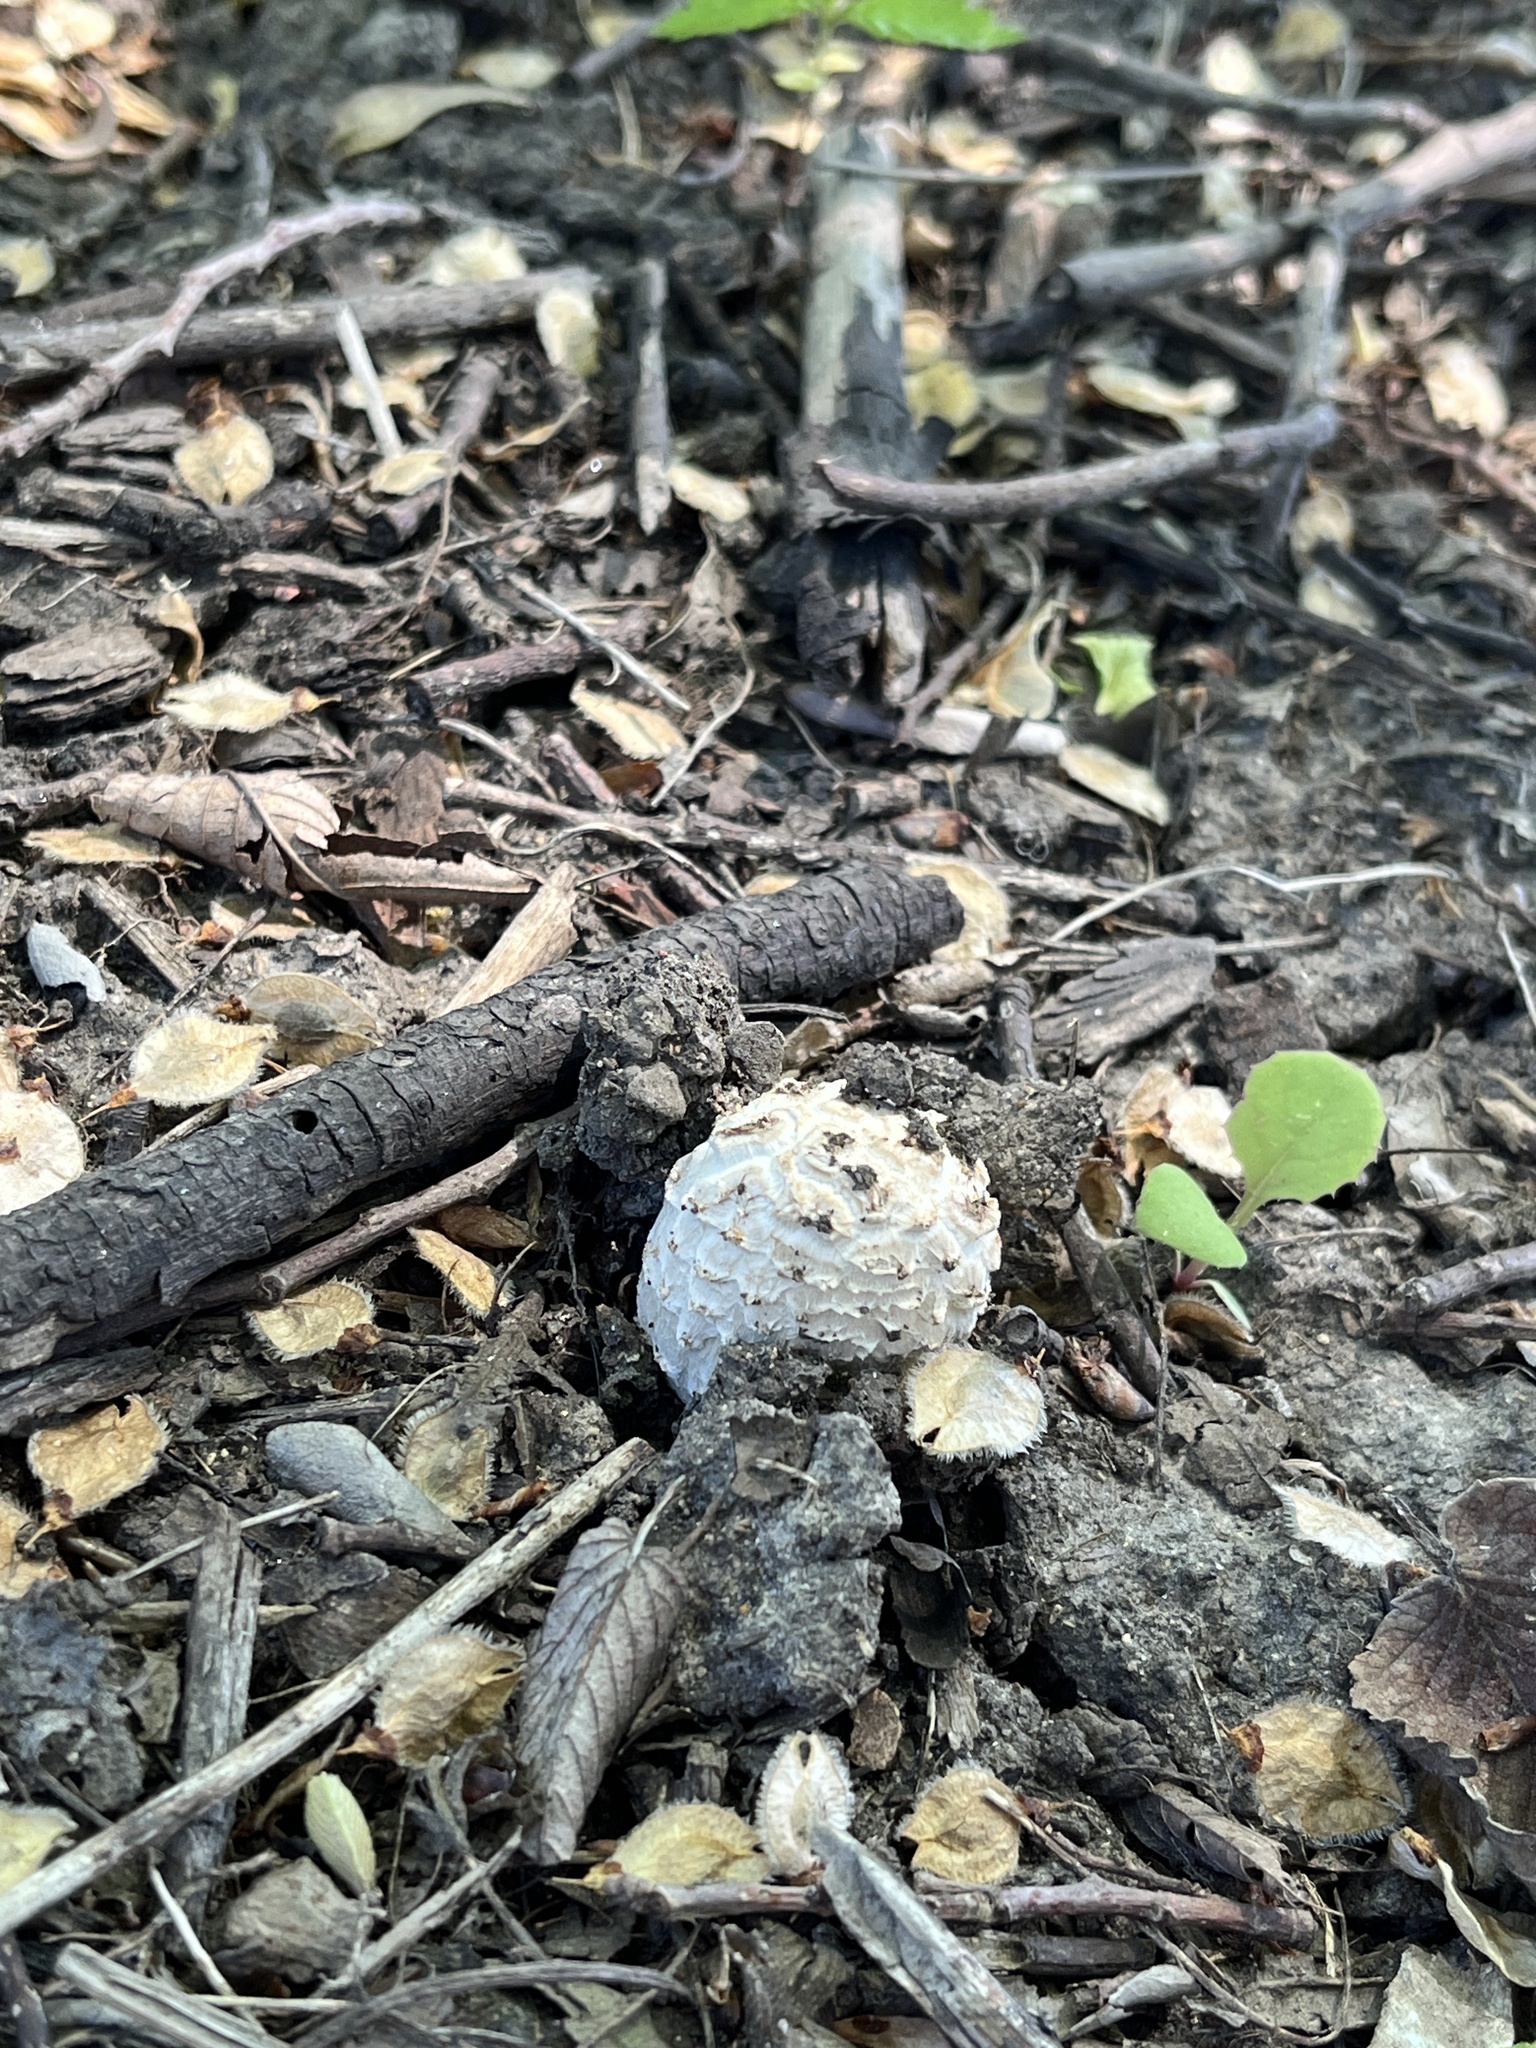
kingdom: Fungi
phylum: Basidiomycota
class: Agaricomycetes
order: Agaricales
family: Agaricaceae
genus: Coprinus
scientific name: Coprinus comatus
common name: Lawyer's wig
